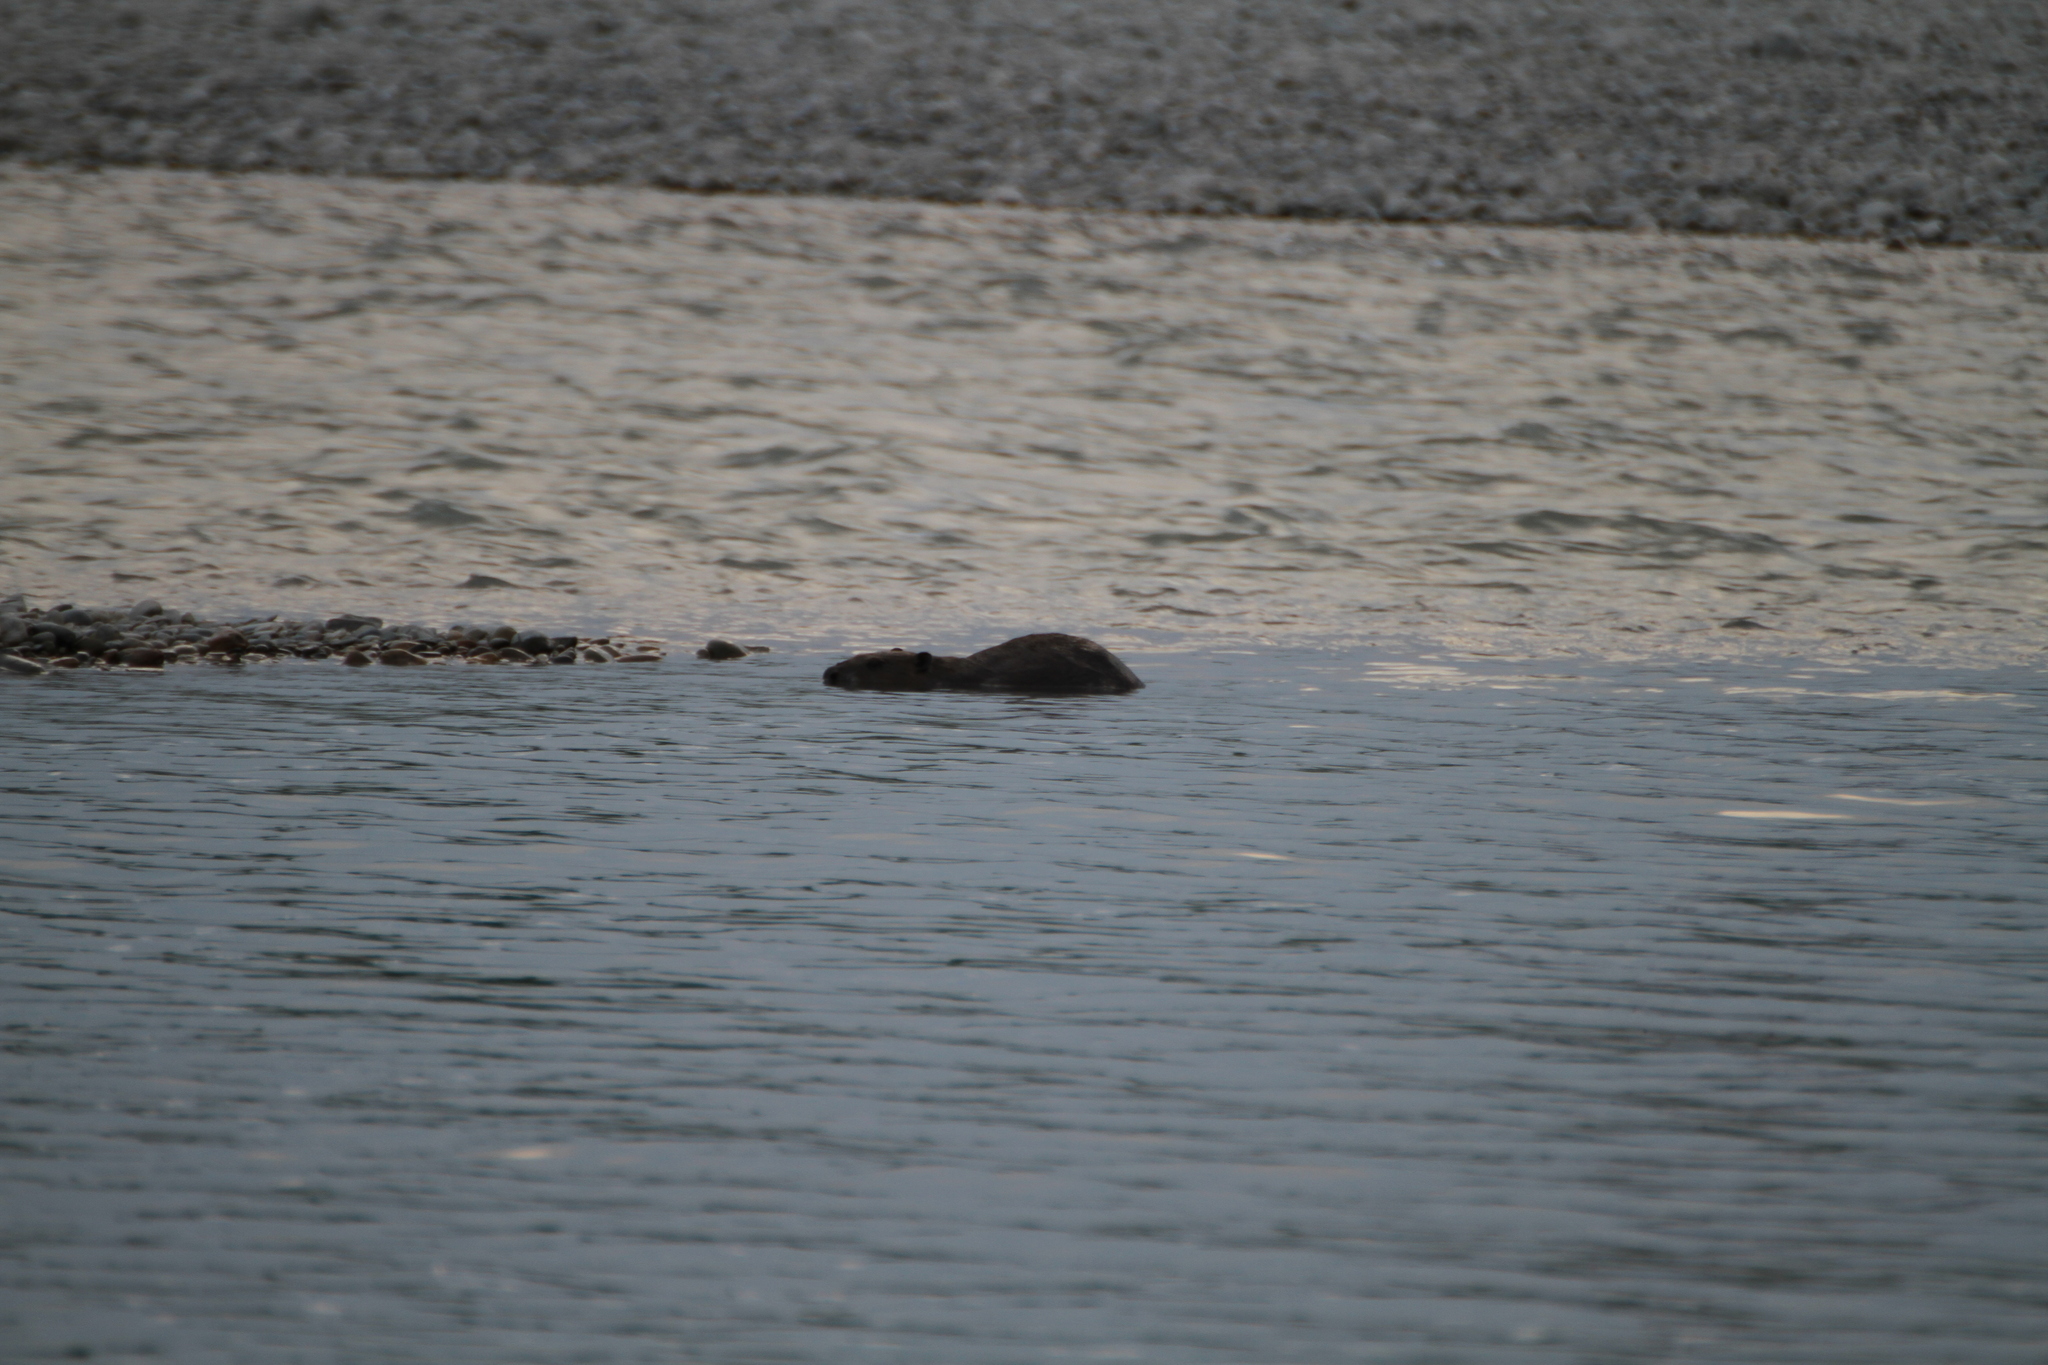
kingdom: Animalia
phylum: Chordata
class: Mammalia
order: Rodentia
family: Castoridae
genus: Castor
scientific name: Castor fiber
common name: Eurasian beaver
